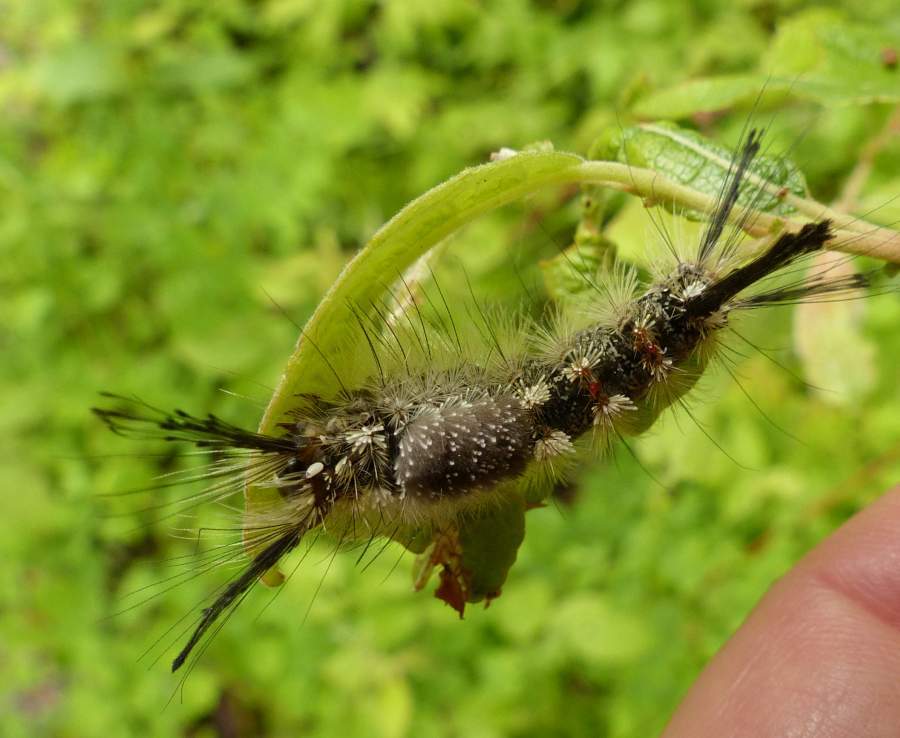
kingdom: Animalia
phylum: Arthropoda
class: Insecta
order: Lepidoptera
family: Erebidae
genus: Dasychira
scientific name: Dasychira dorsipennata
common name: Sharp-lined tussock moth
